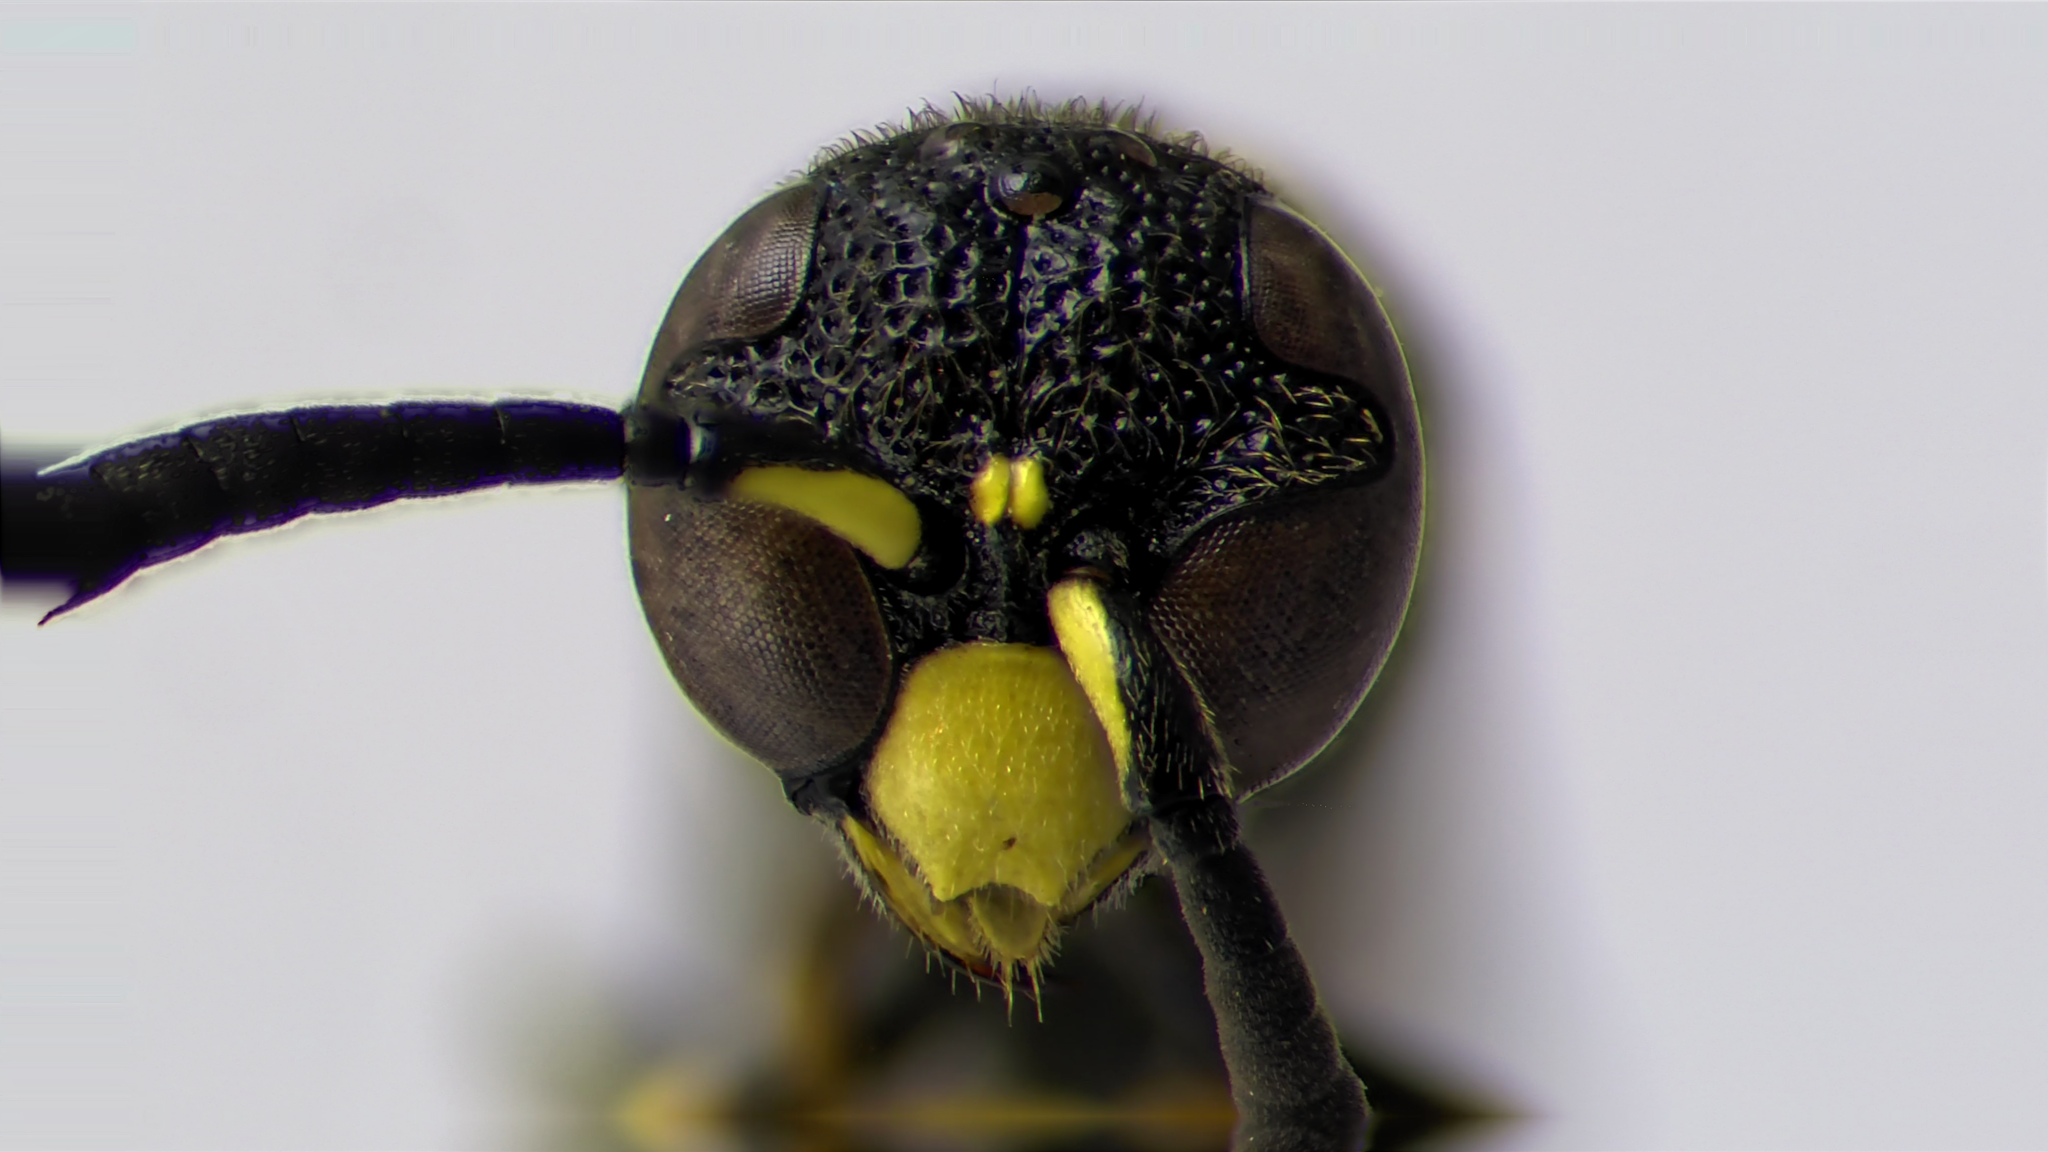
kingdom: Animalia
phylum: Arthropoda
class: Insecta
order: Hymenoptera
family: Eumenidae
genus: Symmorphus
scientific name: Symmorphus canadensis
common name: Canadian potter wasp
